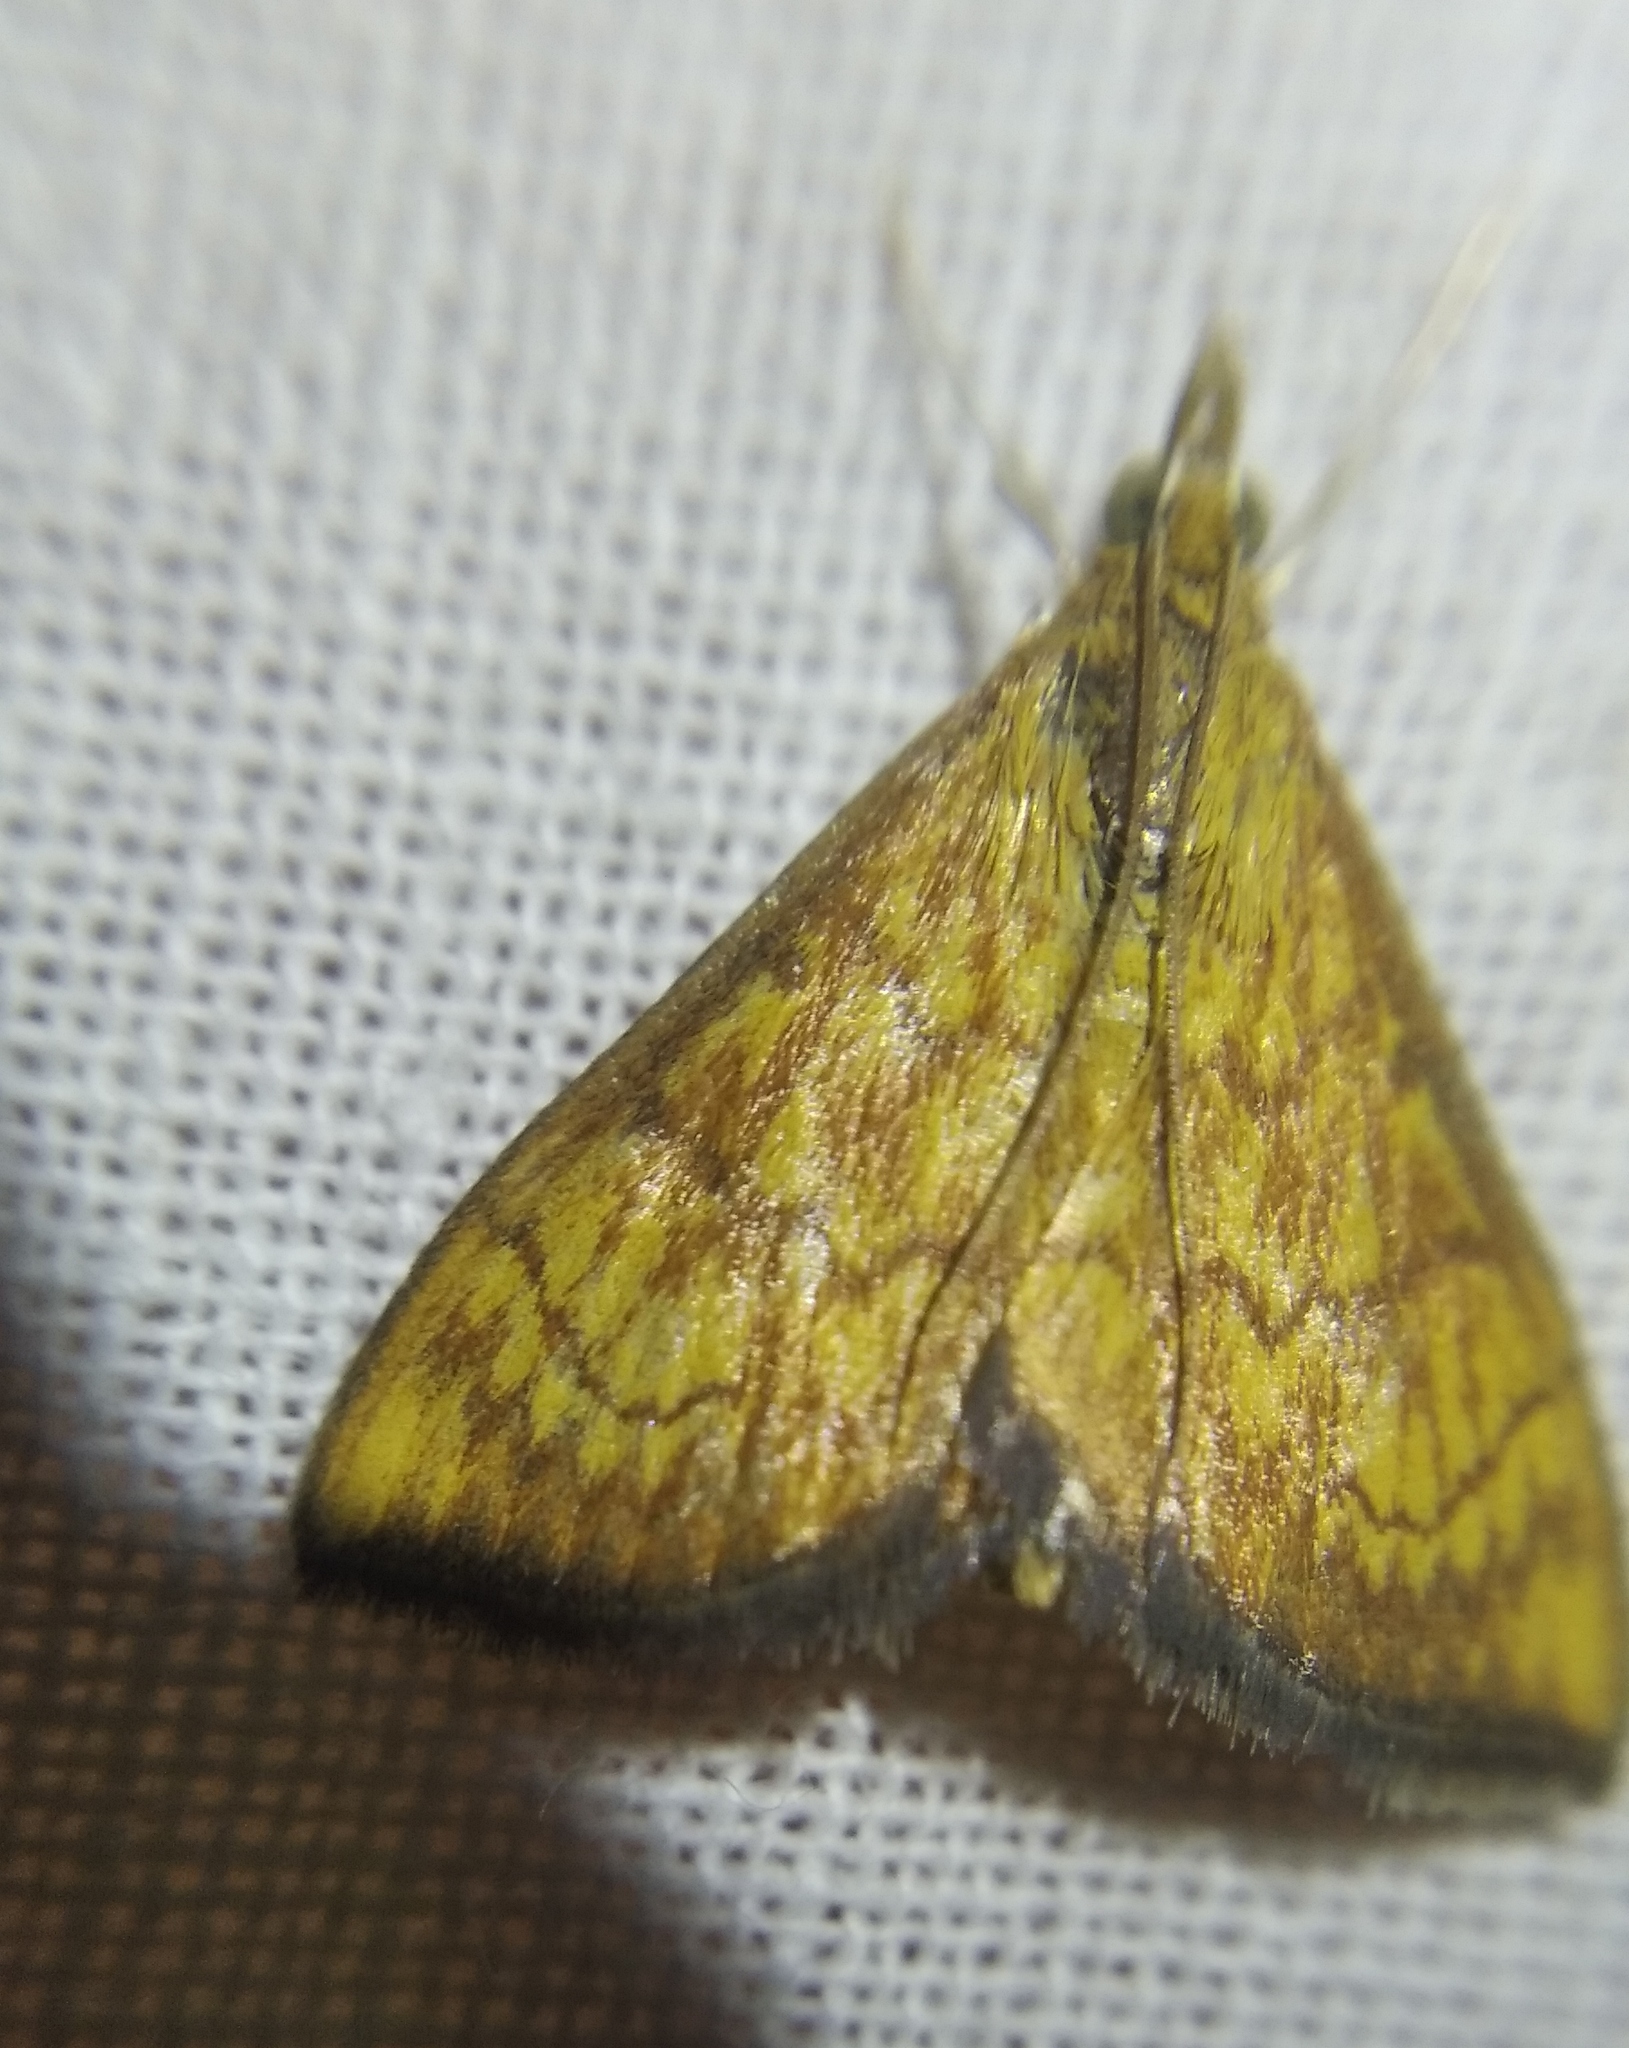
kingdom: Animalia
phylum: Arthropoda
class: Insecta
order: Lepidoptera
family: Crambidae
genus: Ecpyrrhorrhoe
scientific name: Ecpyrrhorrhoe rubiginalis
